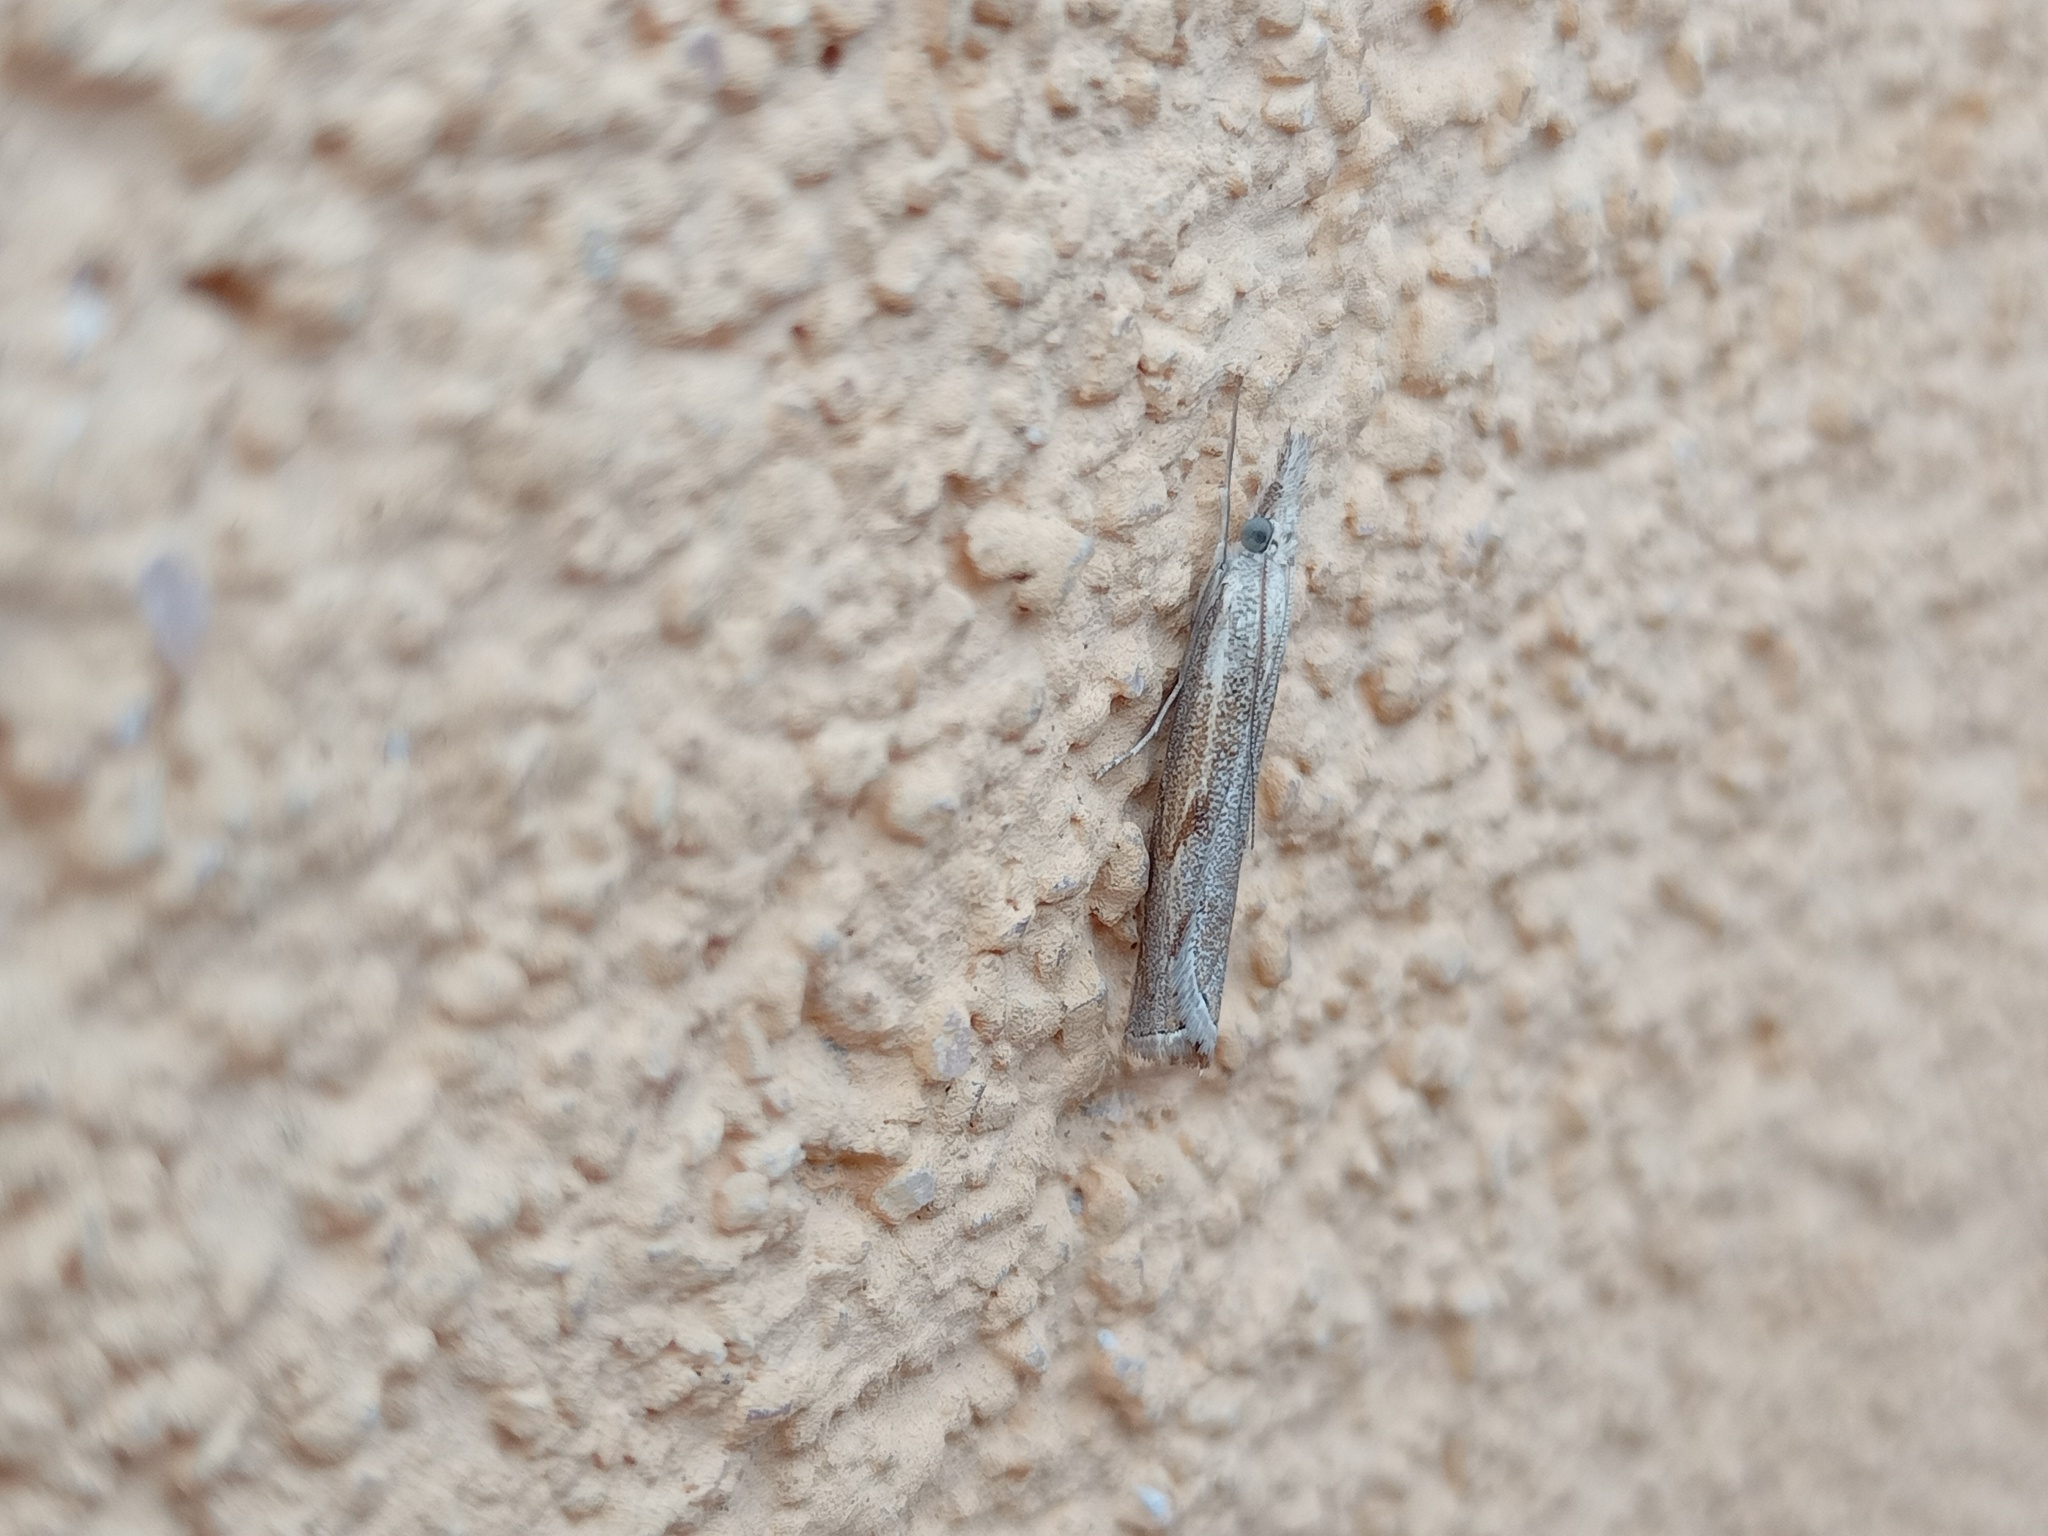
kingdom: Animalia
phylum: Arthropoda
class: Insecta
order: Lepidoptera
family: Crambidae
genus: Agriphila
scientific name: Agriphila geniculea
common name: Elbow-stripe grass-veneer
